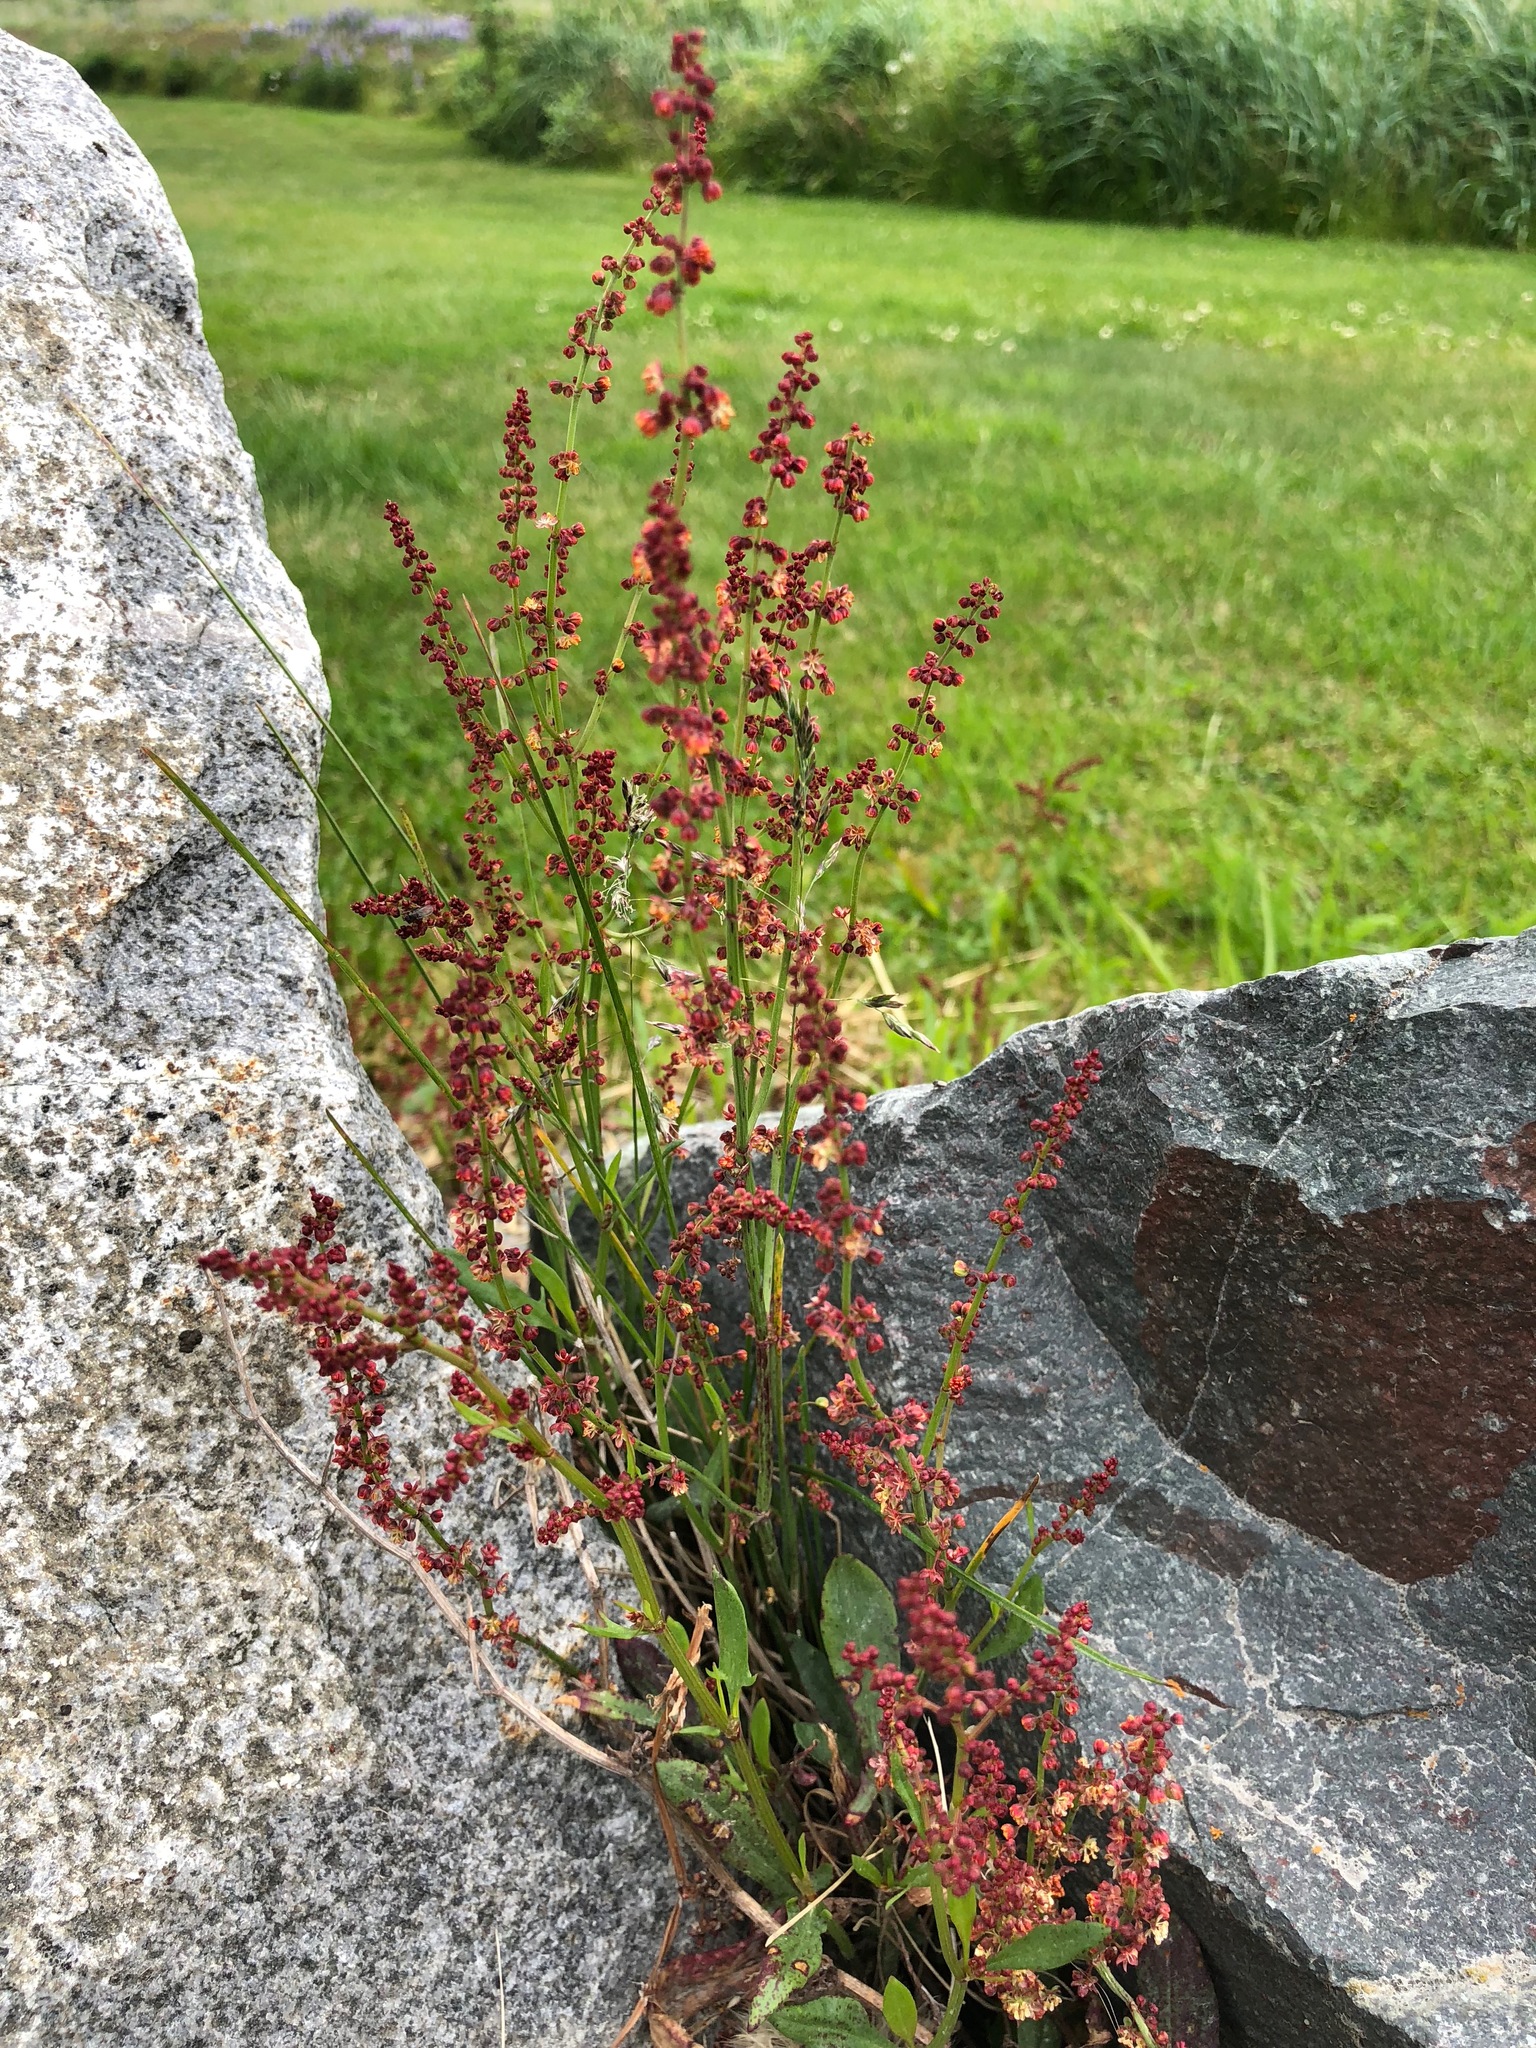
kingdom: Plantae
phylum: Tracheophyta
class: Magnoliopsida
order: Caryophyllales
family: Polygonaceae
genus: Rumex
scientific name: Rumex acetosella
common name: Common sheep sorrel
